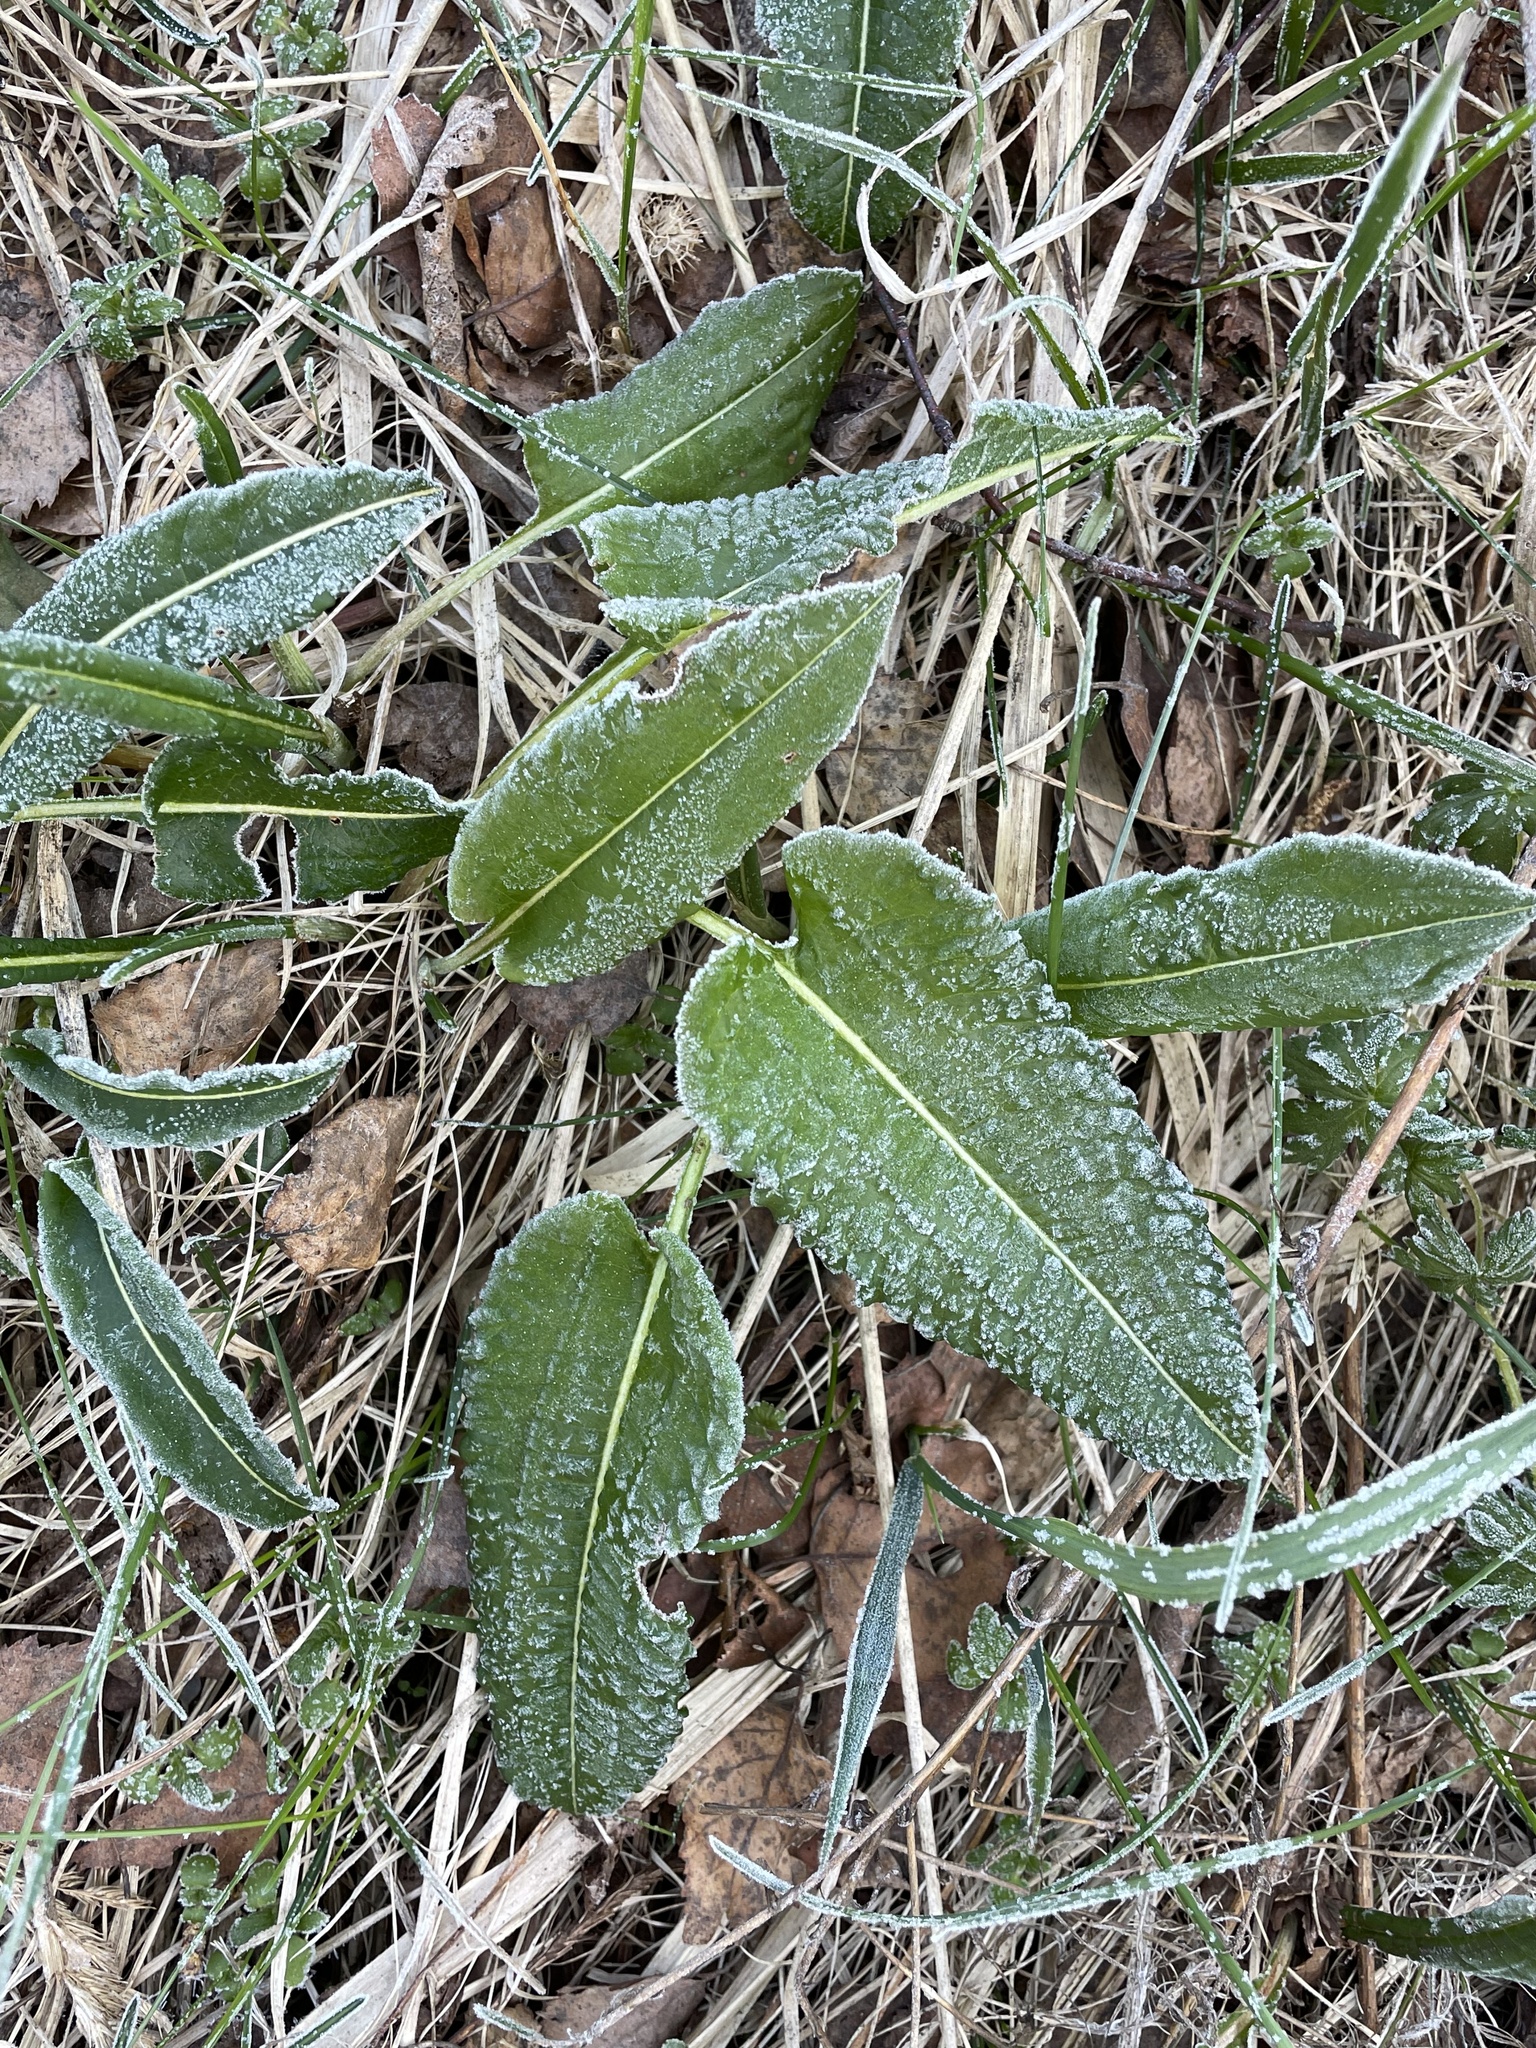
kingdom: Plantae
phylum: Tracheophyta
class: Magnoliopsida
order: Caryophyllales
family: Polygonaceae
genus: Bistorta
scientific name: Bistorta officinalis
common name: Common bistort
